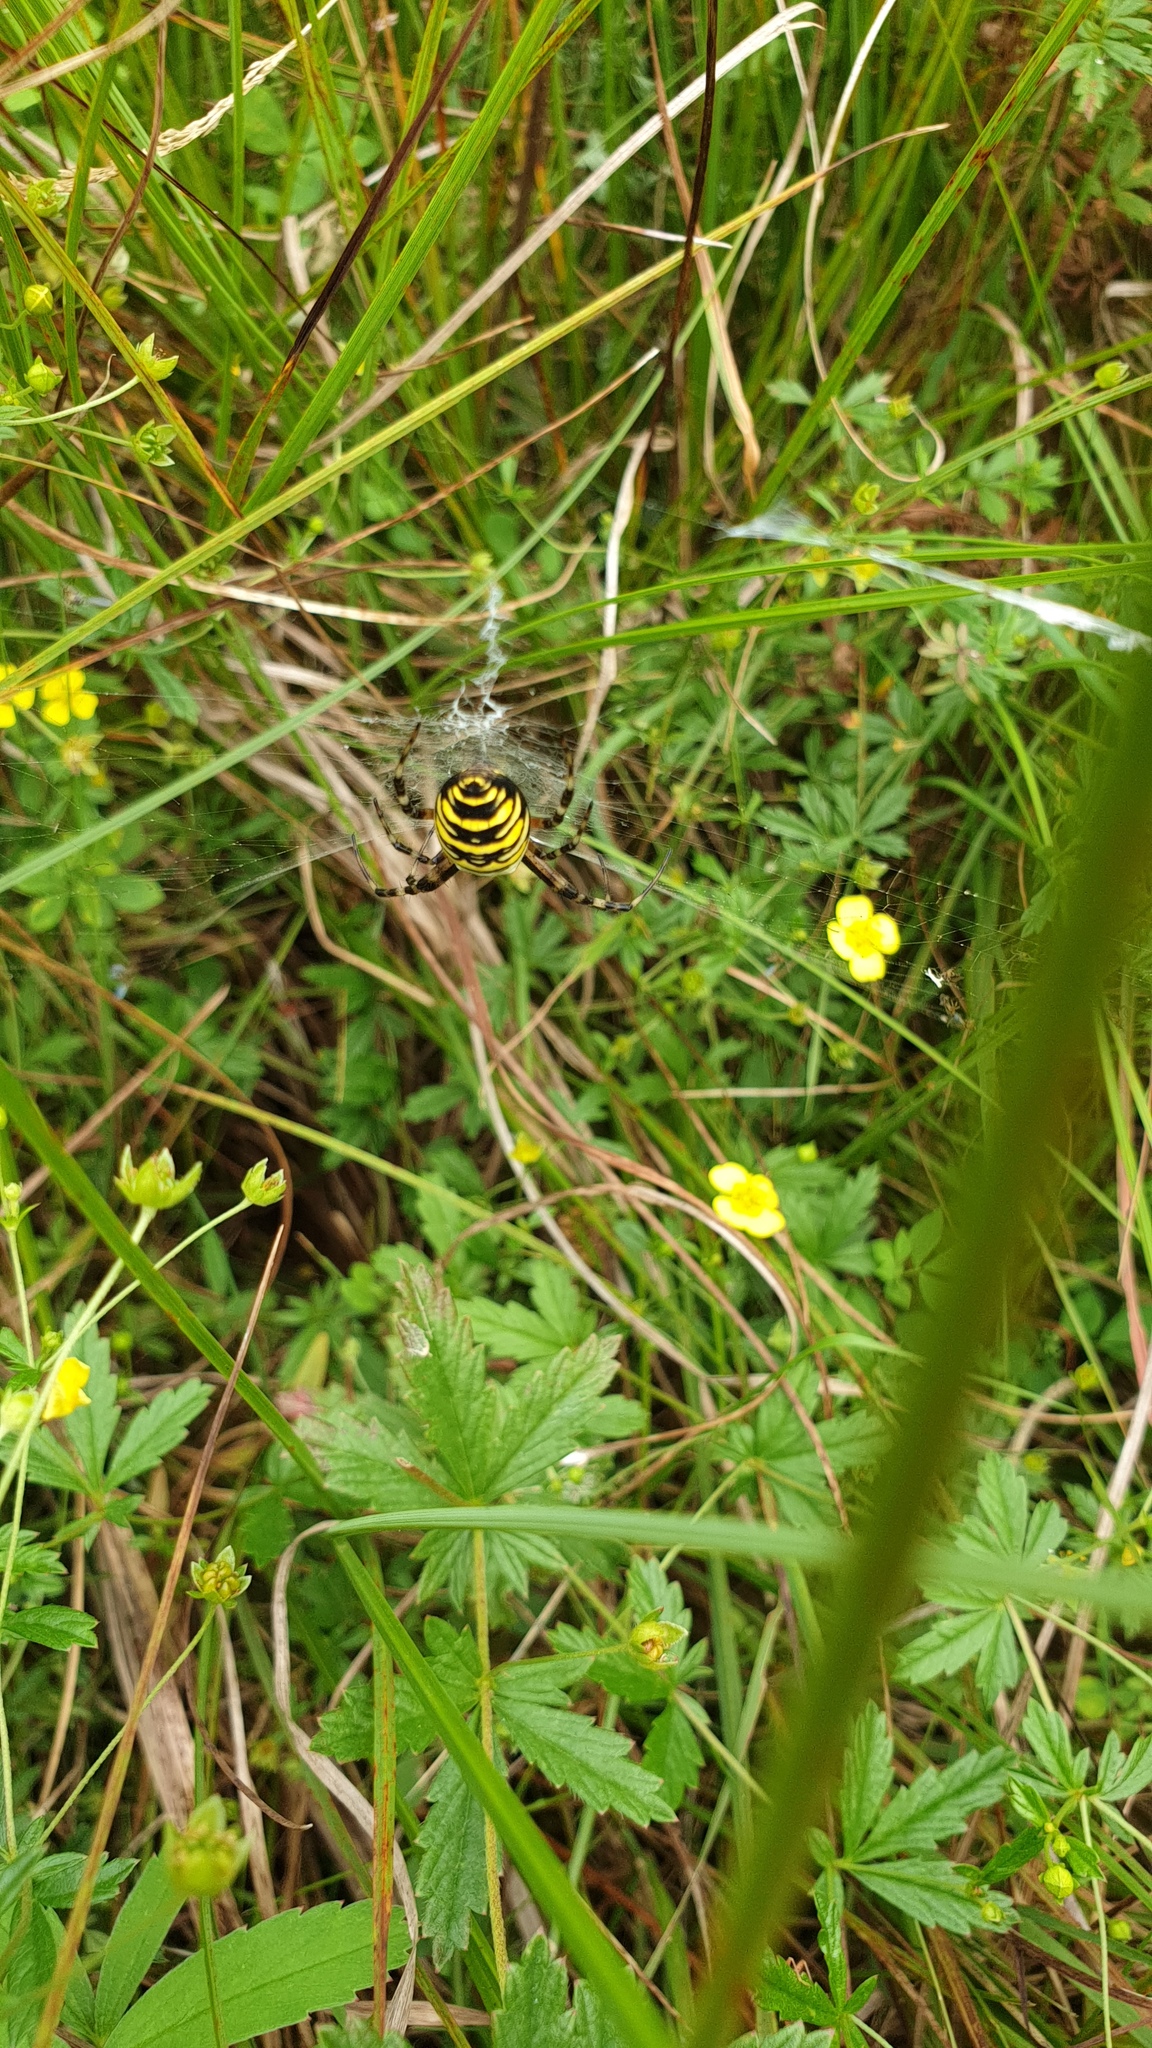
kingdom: Animalia
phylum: Arthropoda
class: Arachnida
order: Araneae
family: Araneidae
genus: Argiope
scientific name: Argiope bruennichi
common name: Wasp spider
